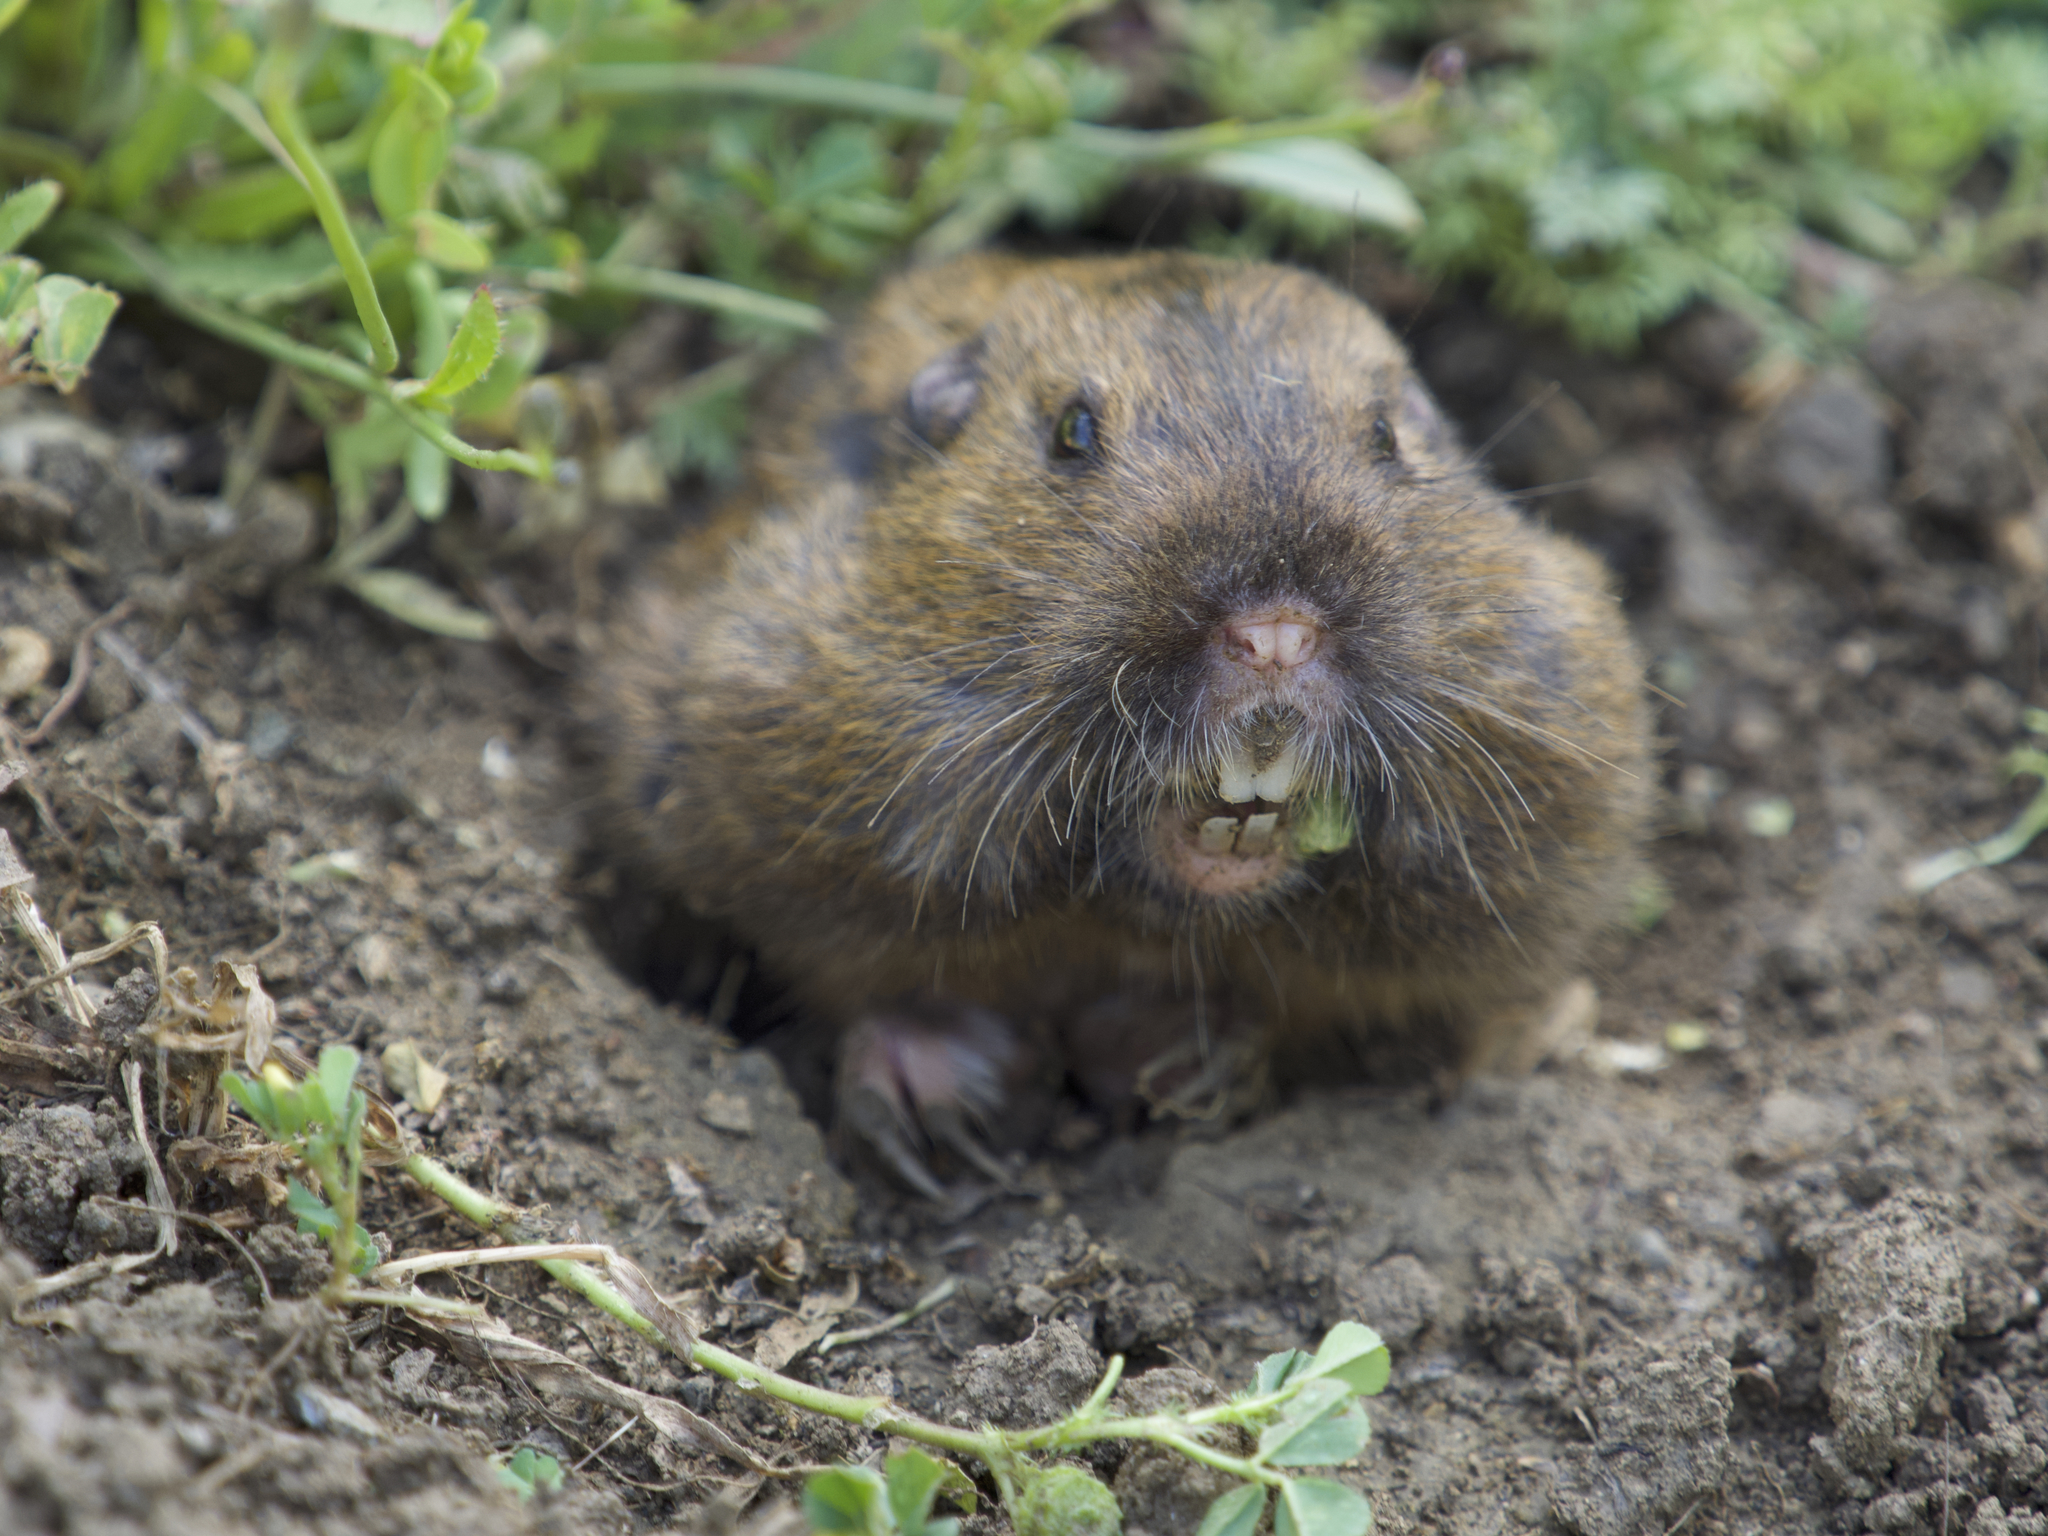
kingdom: Animalia
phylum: Chordata
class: Mammalia
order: Rodentia
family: Geomyidae
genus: Thomomys
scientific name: Thomomys bottae
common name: Botta's pocket gopher
